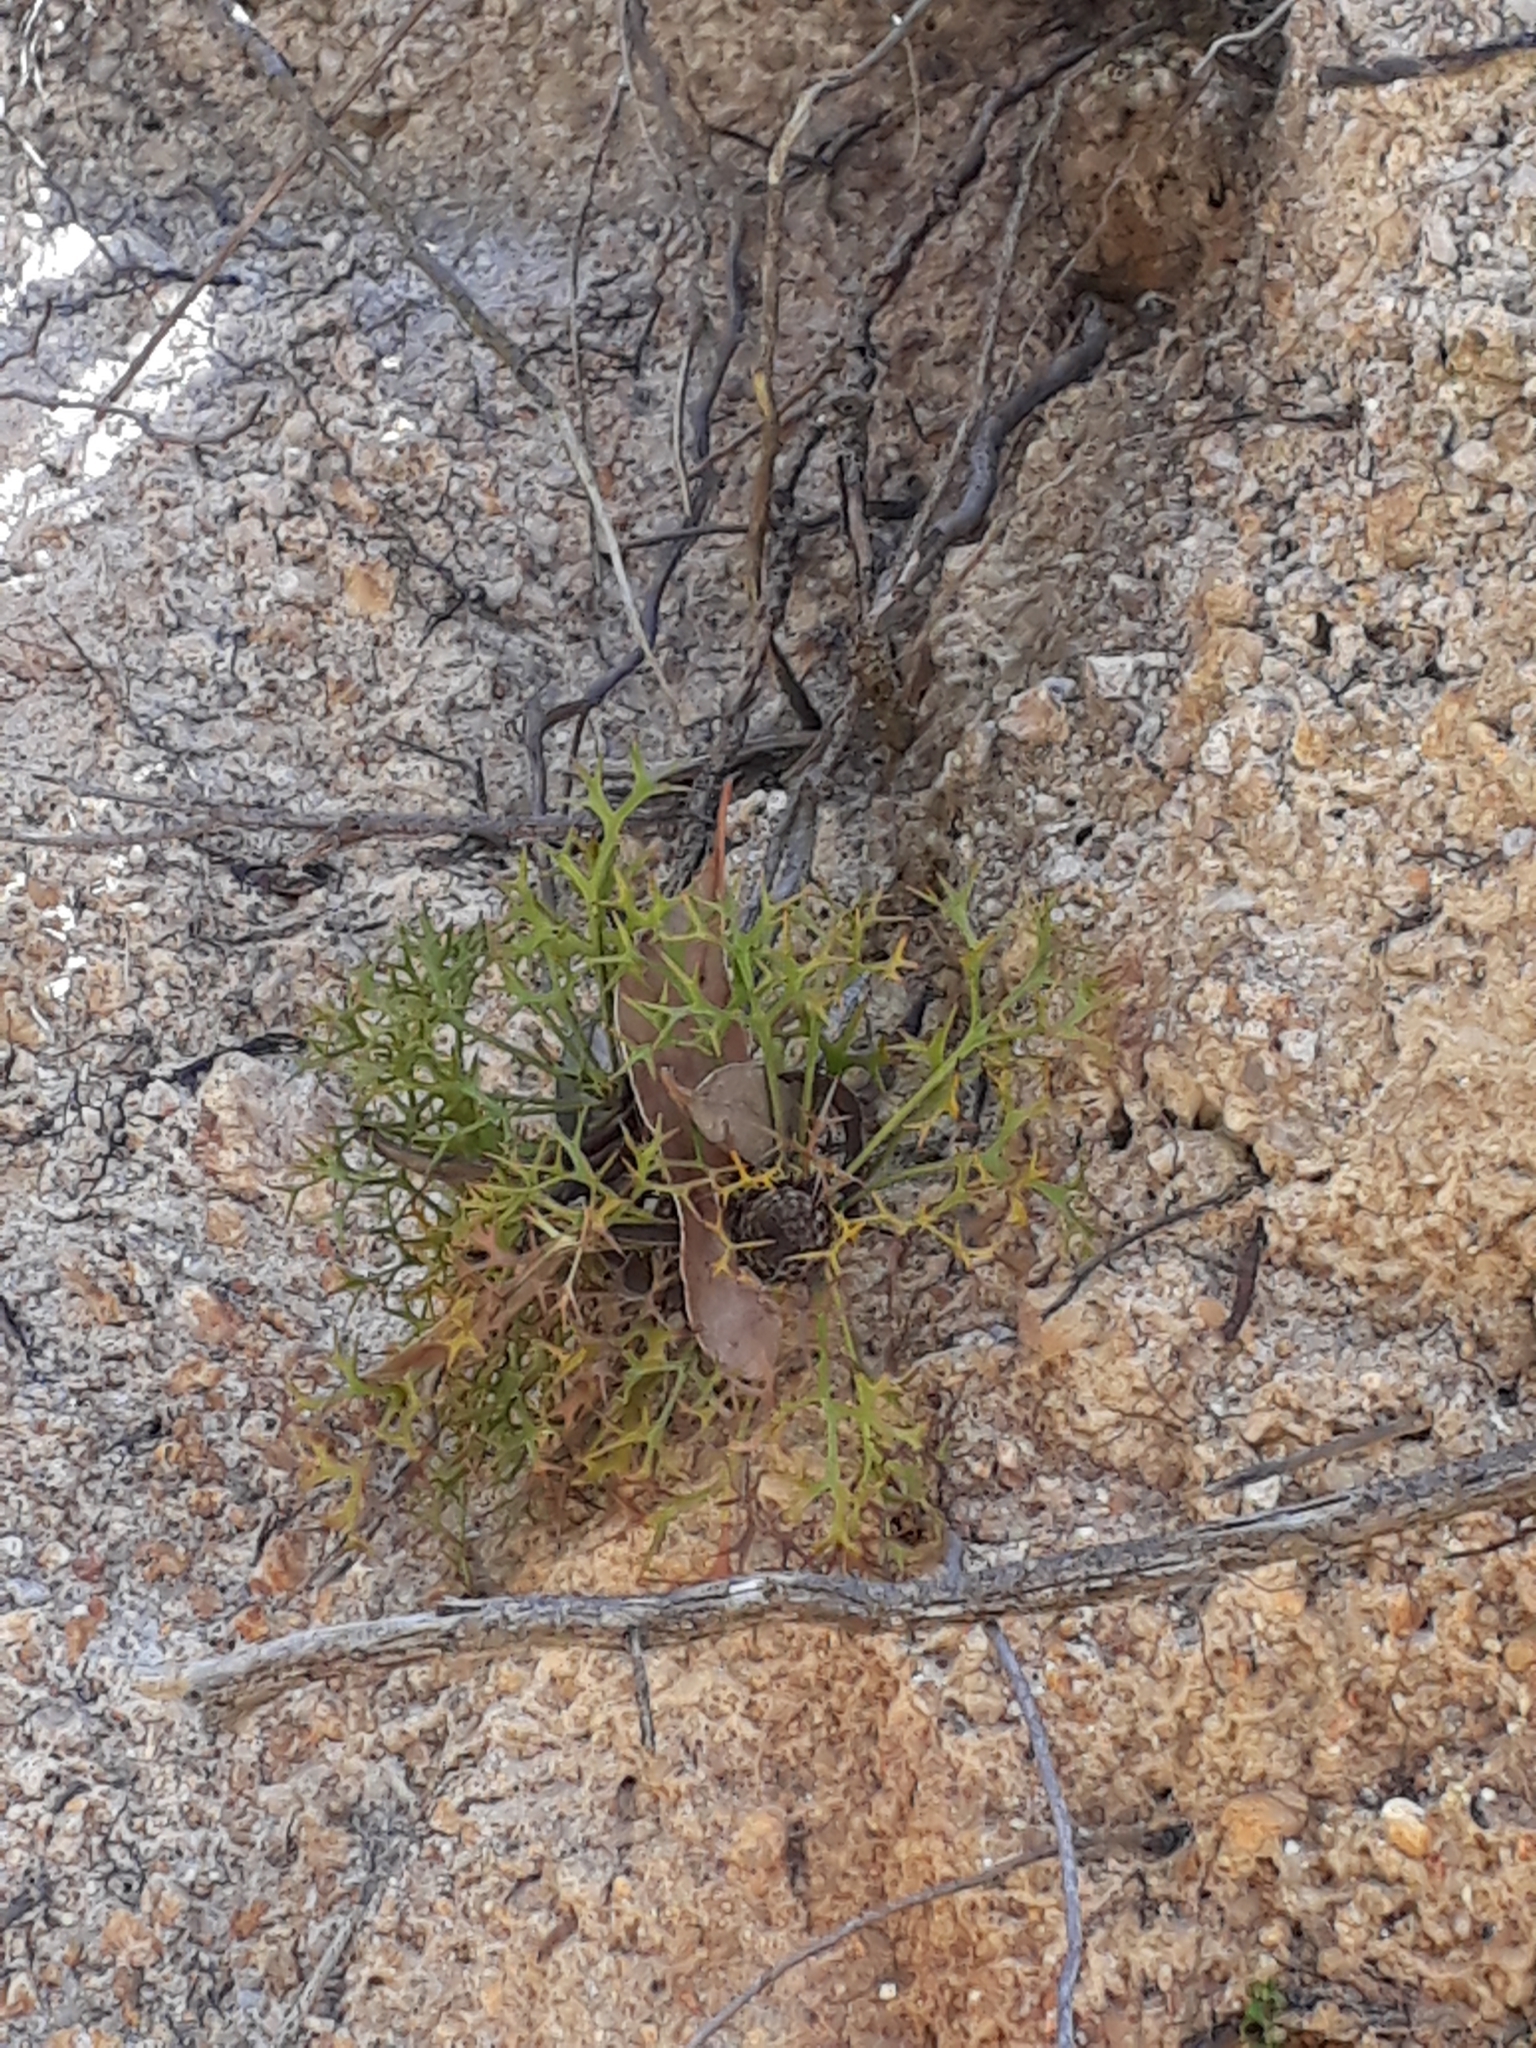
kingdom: Plantae
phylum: Tracheophyta
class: Magnoliopsida
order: Proteales
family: Proteaceae
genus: Isopogon
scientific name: Isopogon ceratophyllus
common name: Horny cone-bush
